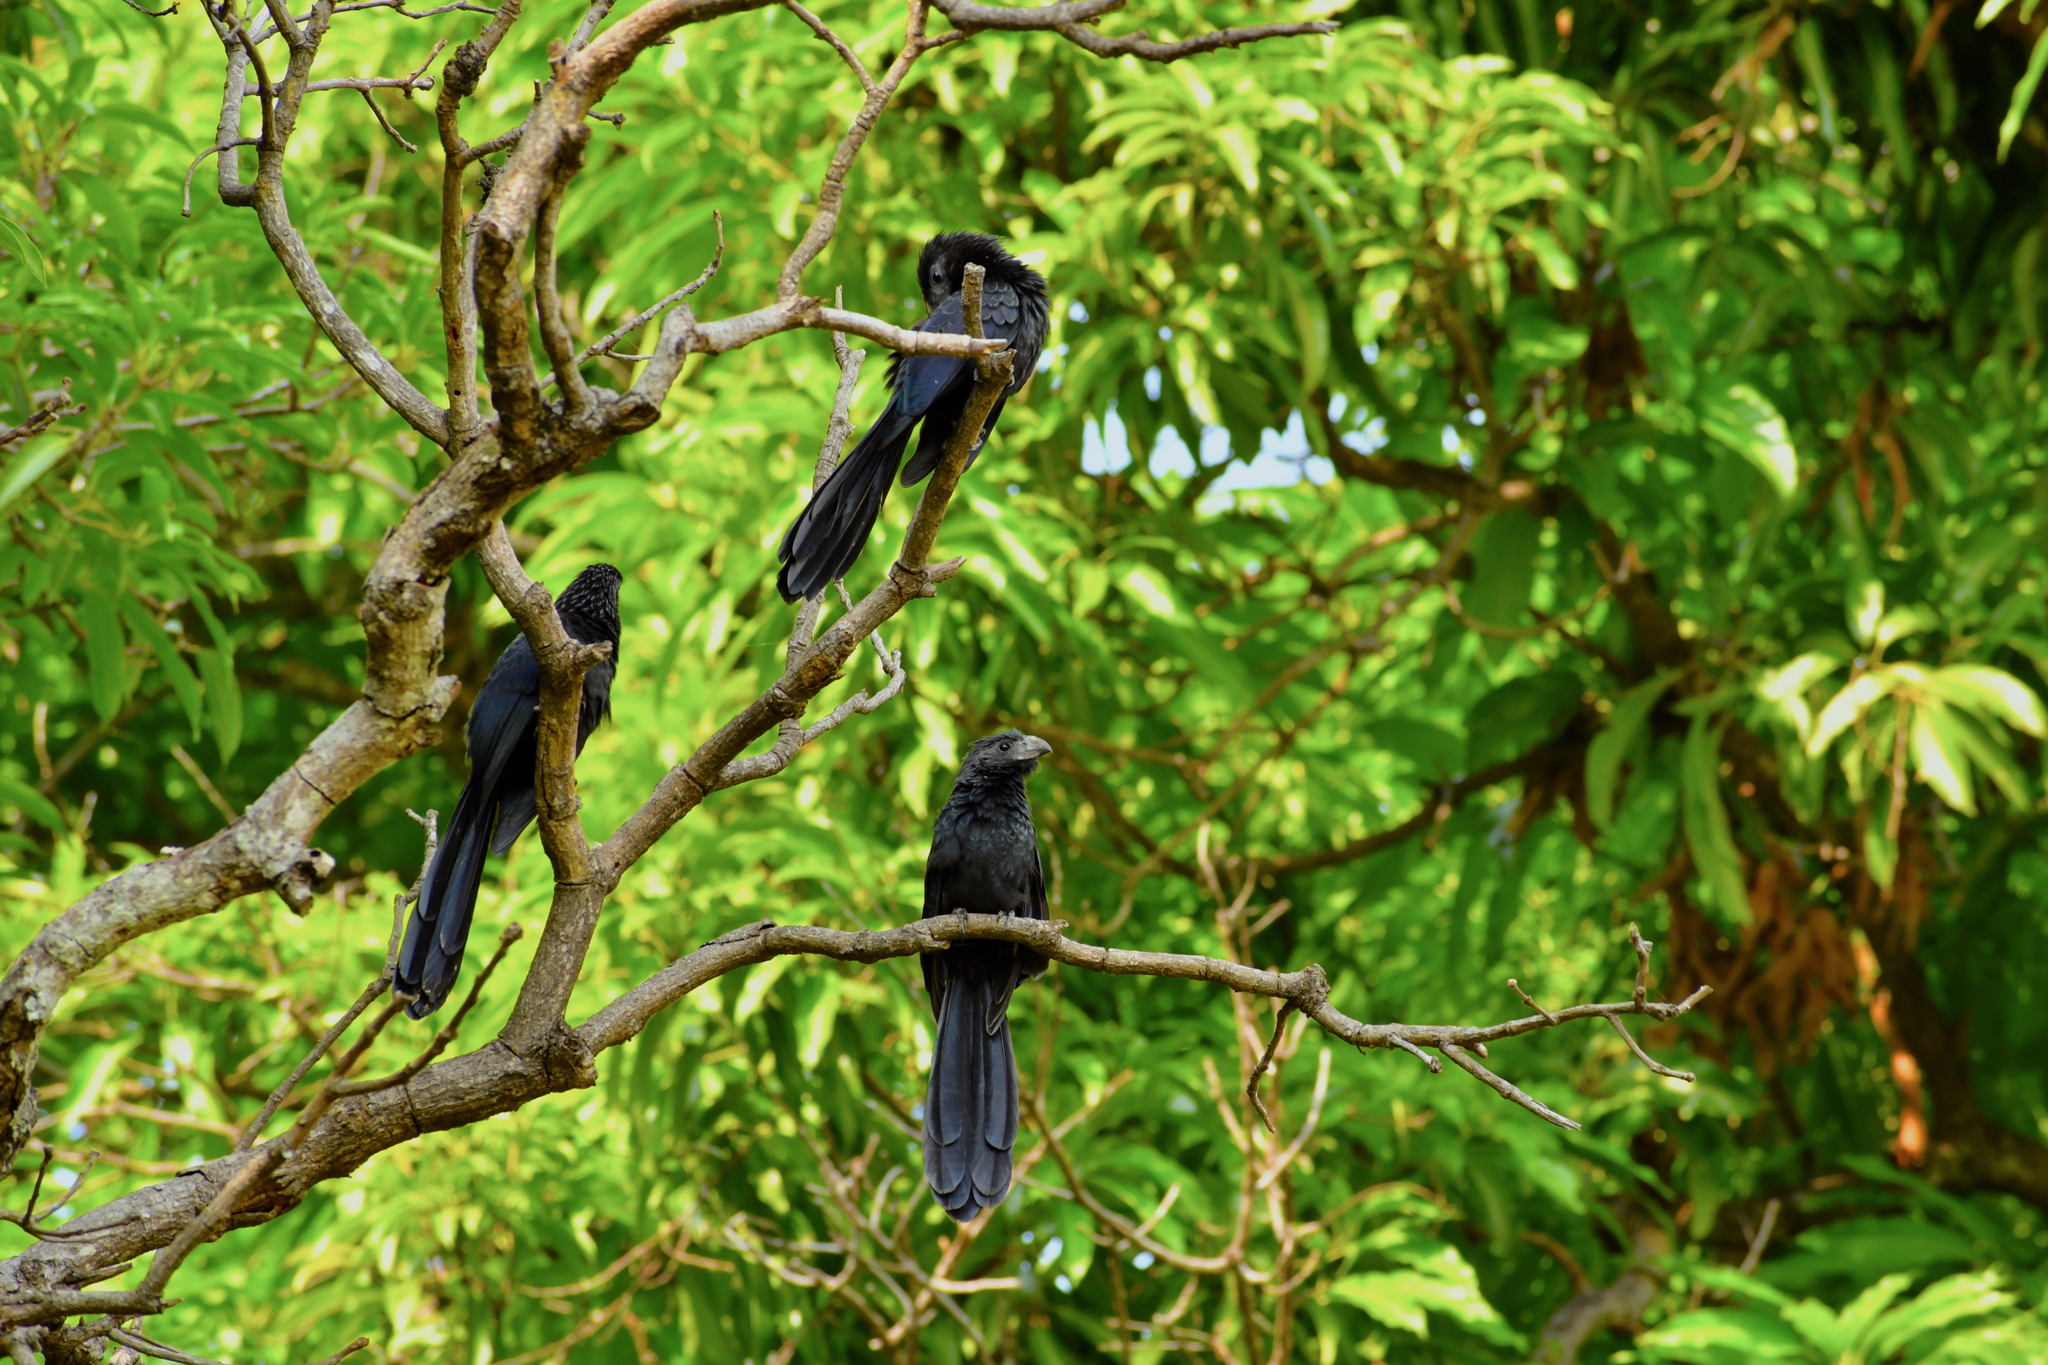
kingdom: Animalia
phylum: Chordata
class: Aves
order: Cuculiformes
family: Cuculidae
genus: Crotophaga
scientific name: Crotophaga sulcirostris
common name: Groove-billed ani
